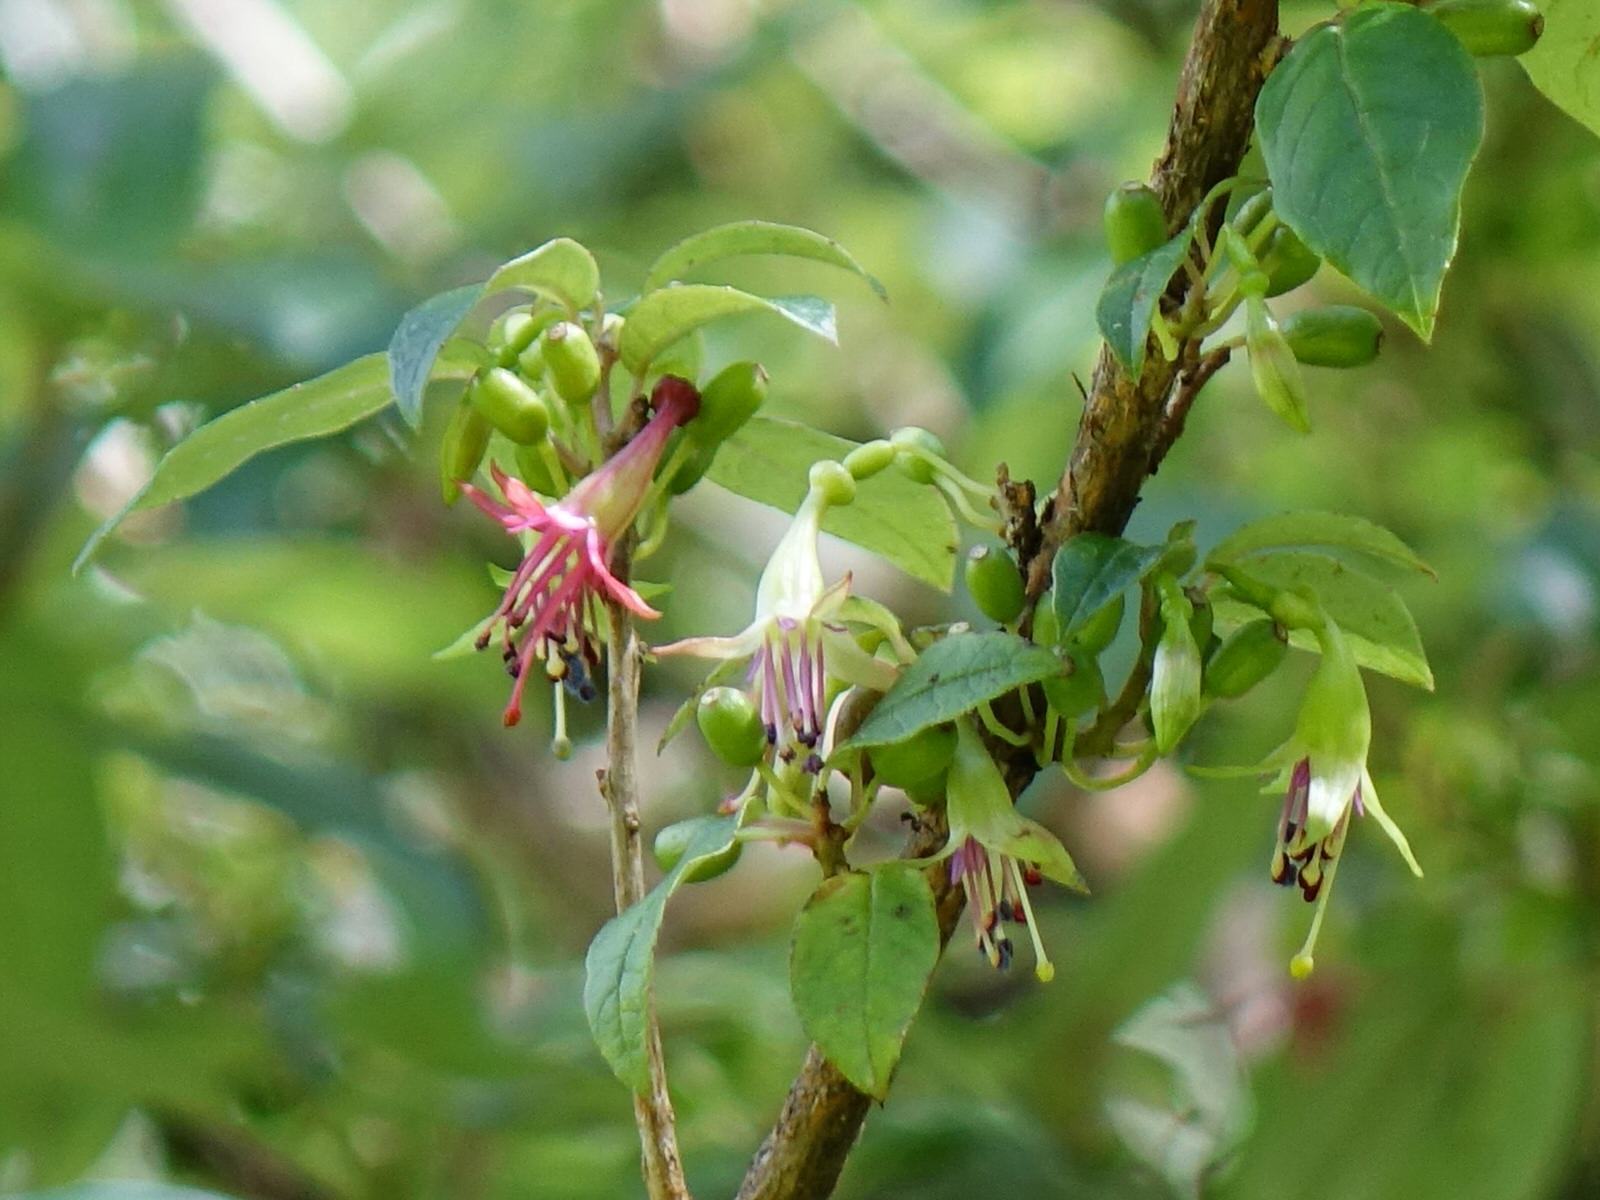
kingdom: Plantae
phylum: Tracheophyta
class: Magnoliopsida
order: Myrtales
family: Onagraceae
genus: Fuchsia
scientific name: Fuchsia excorticata
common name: Tree fuchsia
